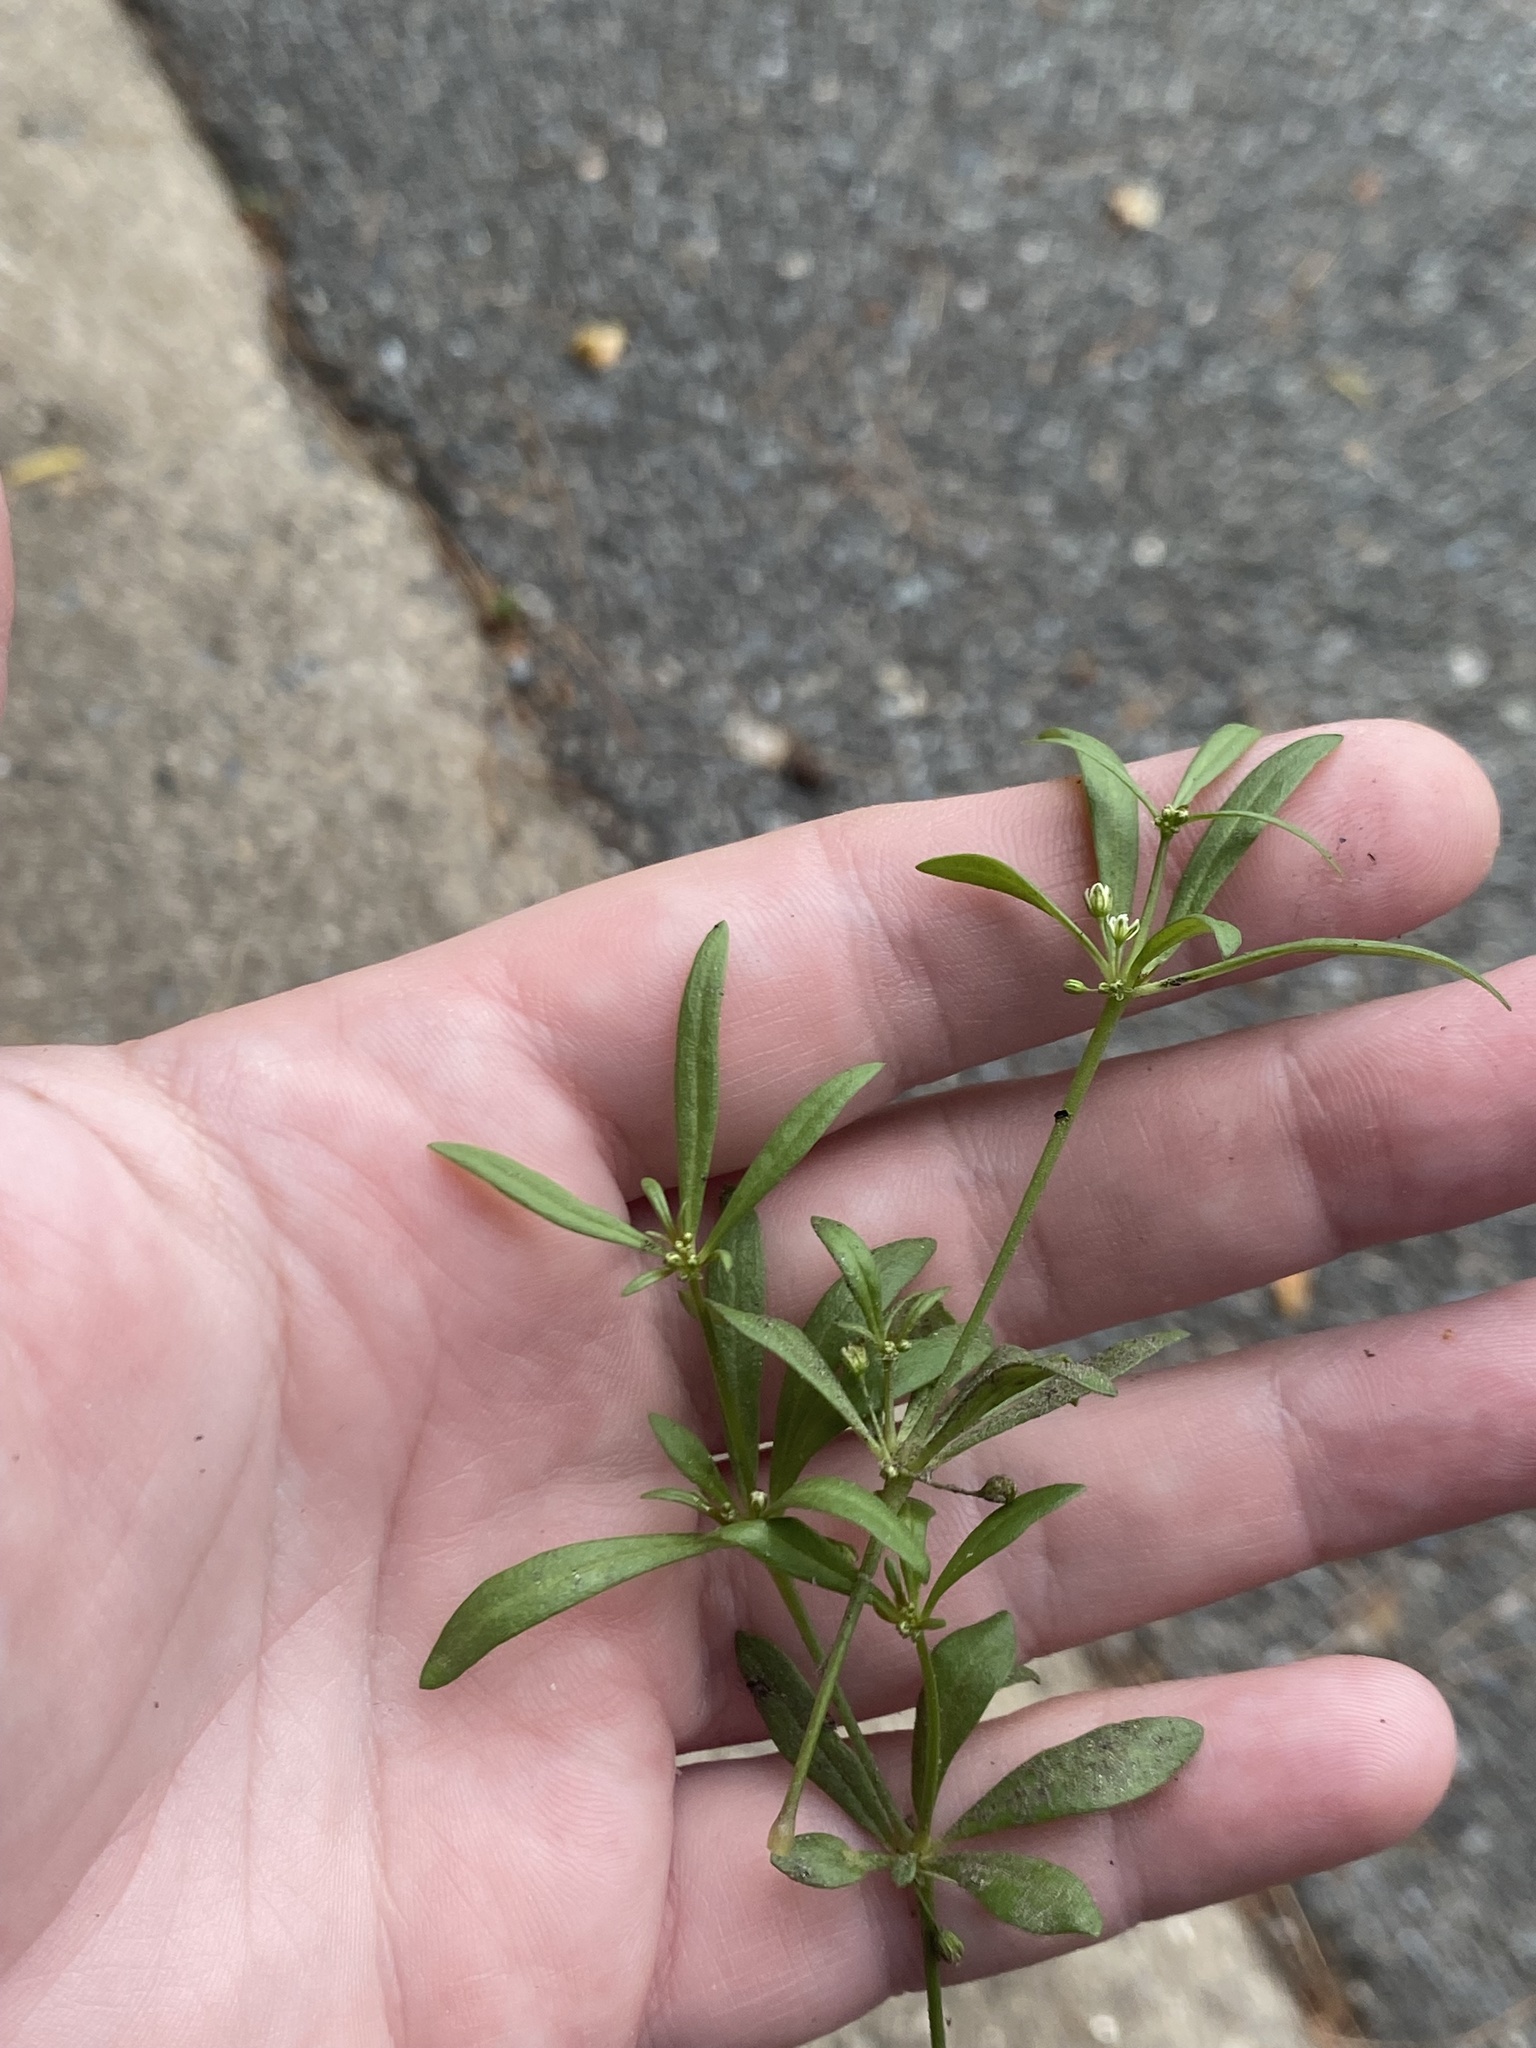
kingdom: Plantae
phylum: Tracheophyta
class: Magnoliopsida
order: Caryophyllales
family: Molluginaceae
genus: Mollugo
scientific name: Mollugo verticillata
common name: Green carpetweed
